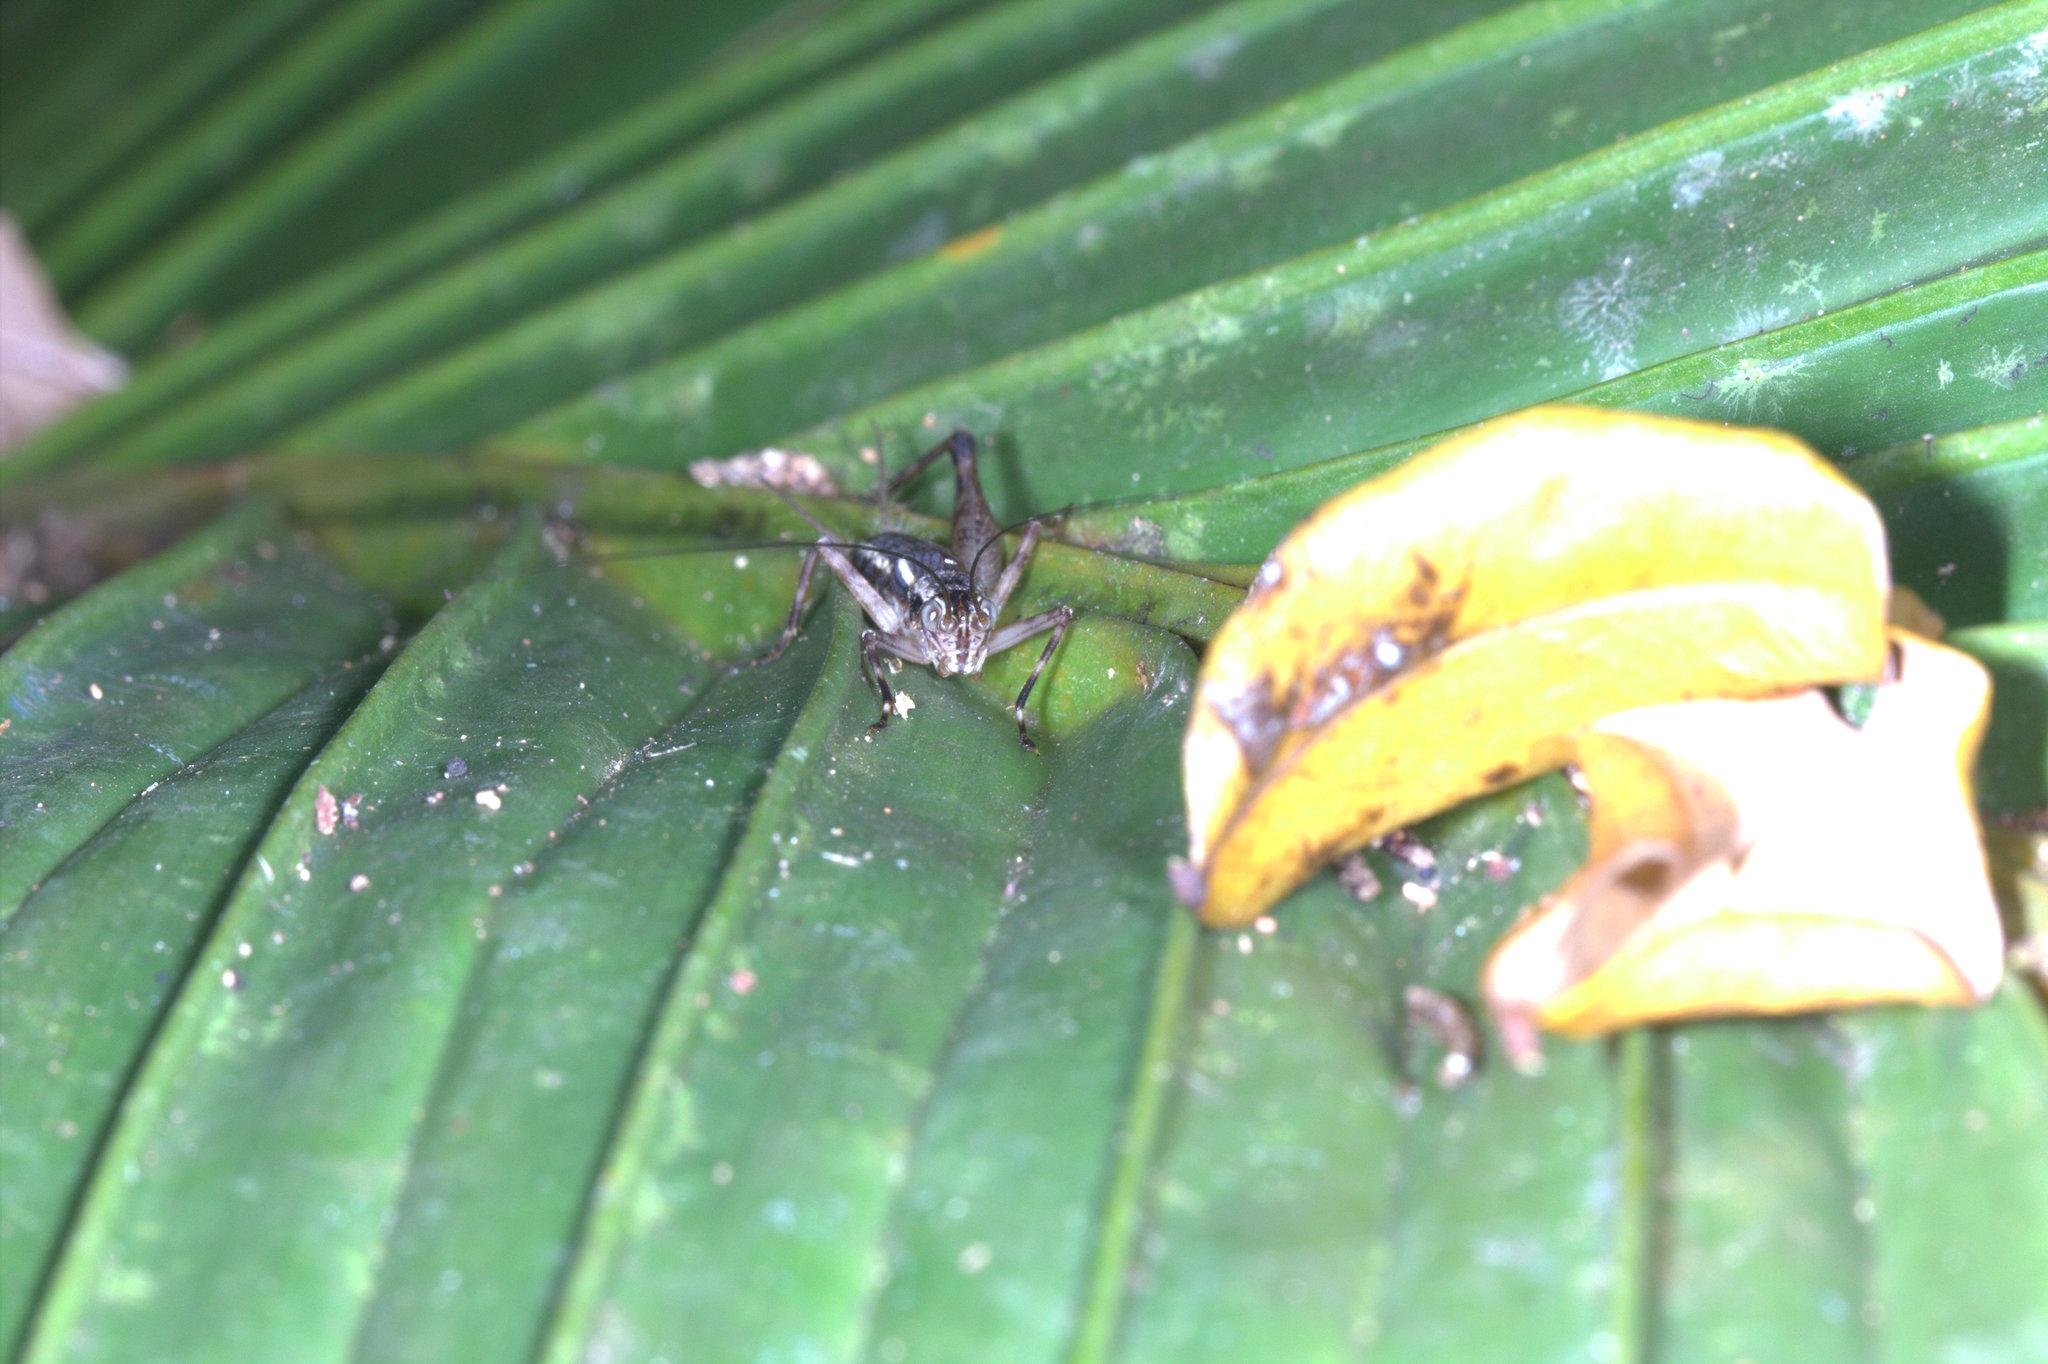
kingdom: Animalia
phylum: Arthropoda
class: Insecta
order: Orthoptera
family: Phalangopsidae
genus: Seselia
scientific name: Seselia patellifera
